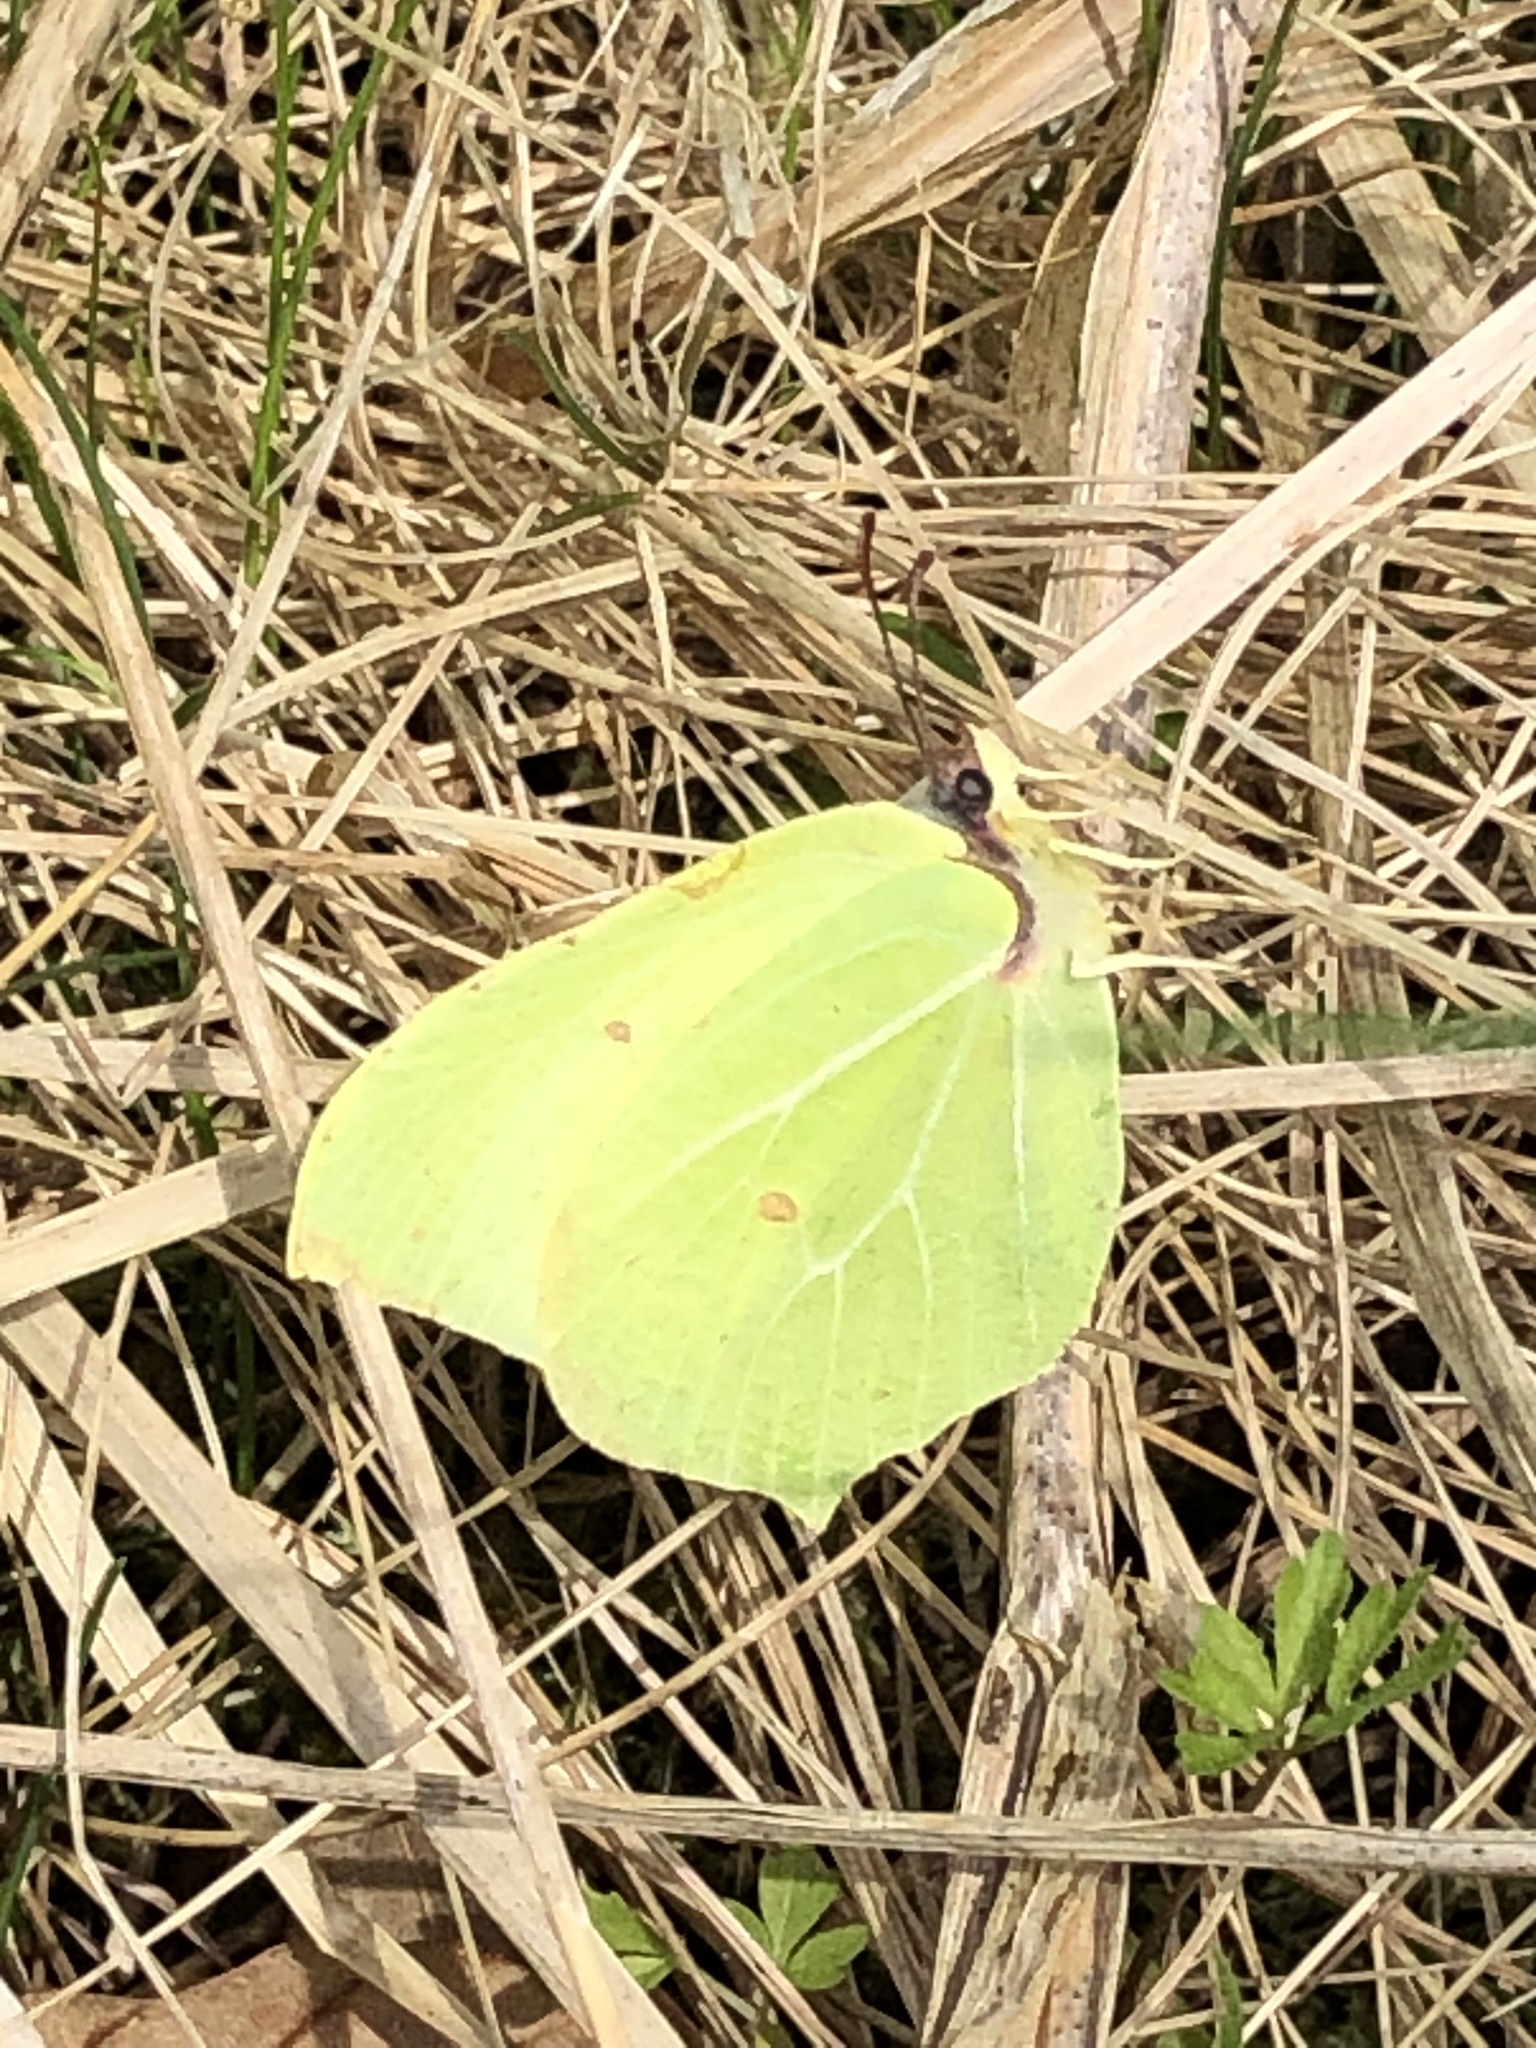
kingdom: Animalia
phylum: Arthropoda
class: Insecta
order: Lepidoptera
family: Pieridae
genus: Gonepteryx
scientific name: Gonepteryx rhamni
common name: Brimstone
